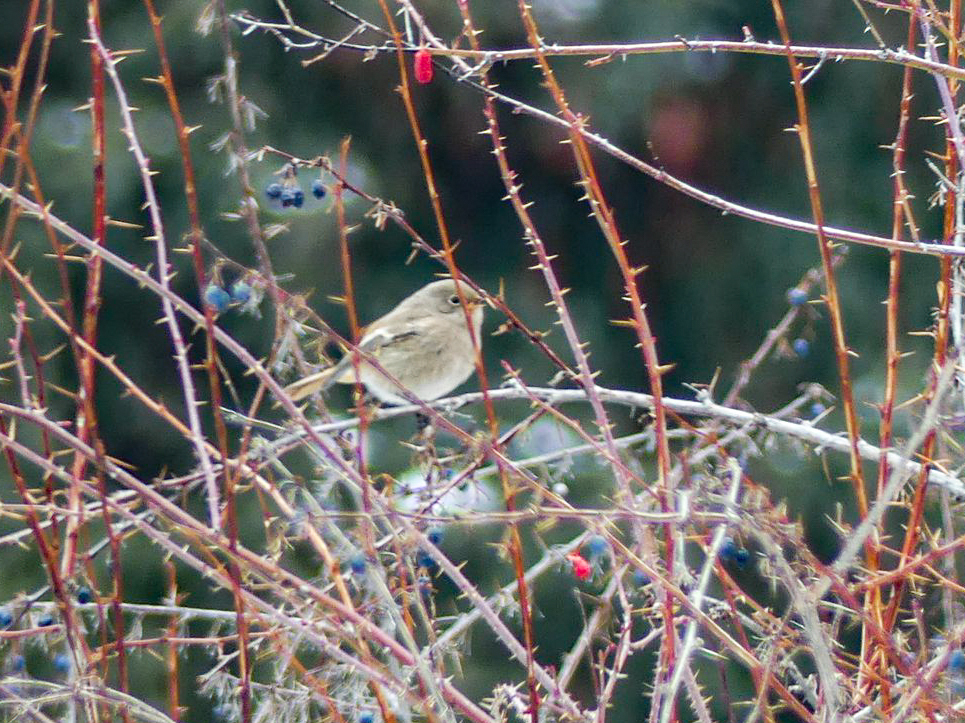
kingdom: Animalia
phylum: Chordata
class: Aves
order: Passeriformes
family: Muscicapidae
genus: Phoenicurus
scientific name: Phoenicurus erythronotus
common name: Eversmann's redstart
